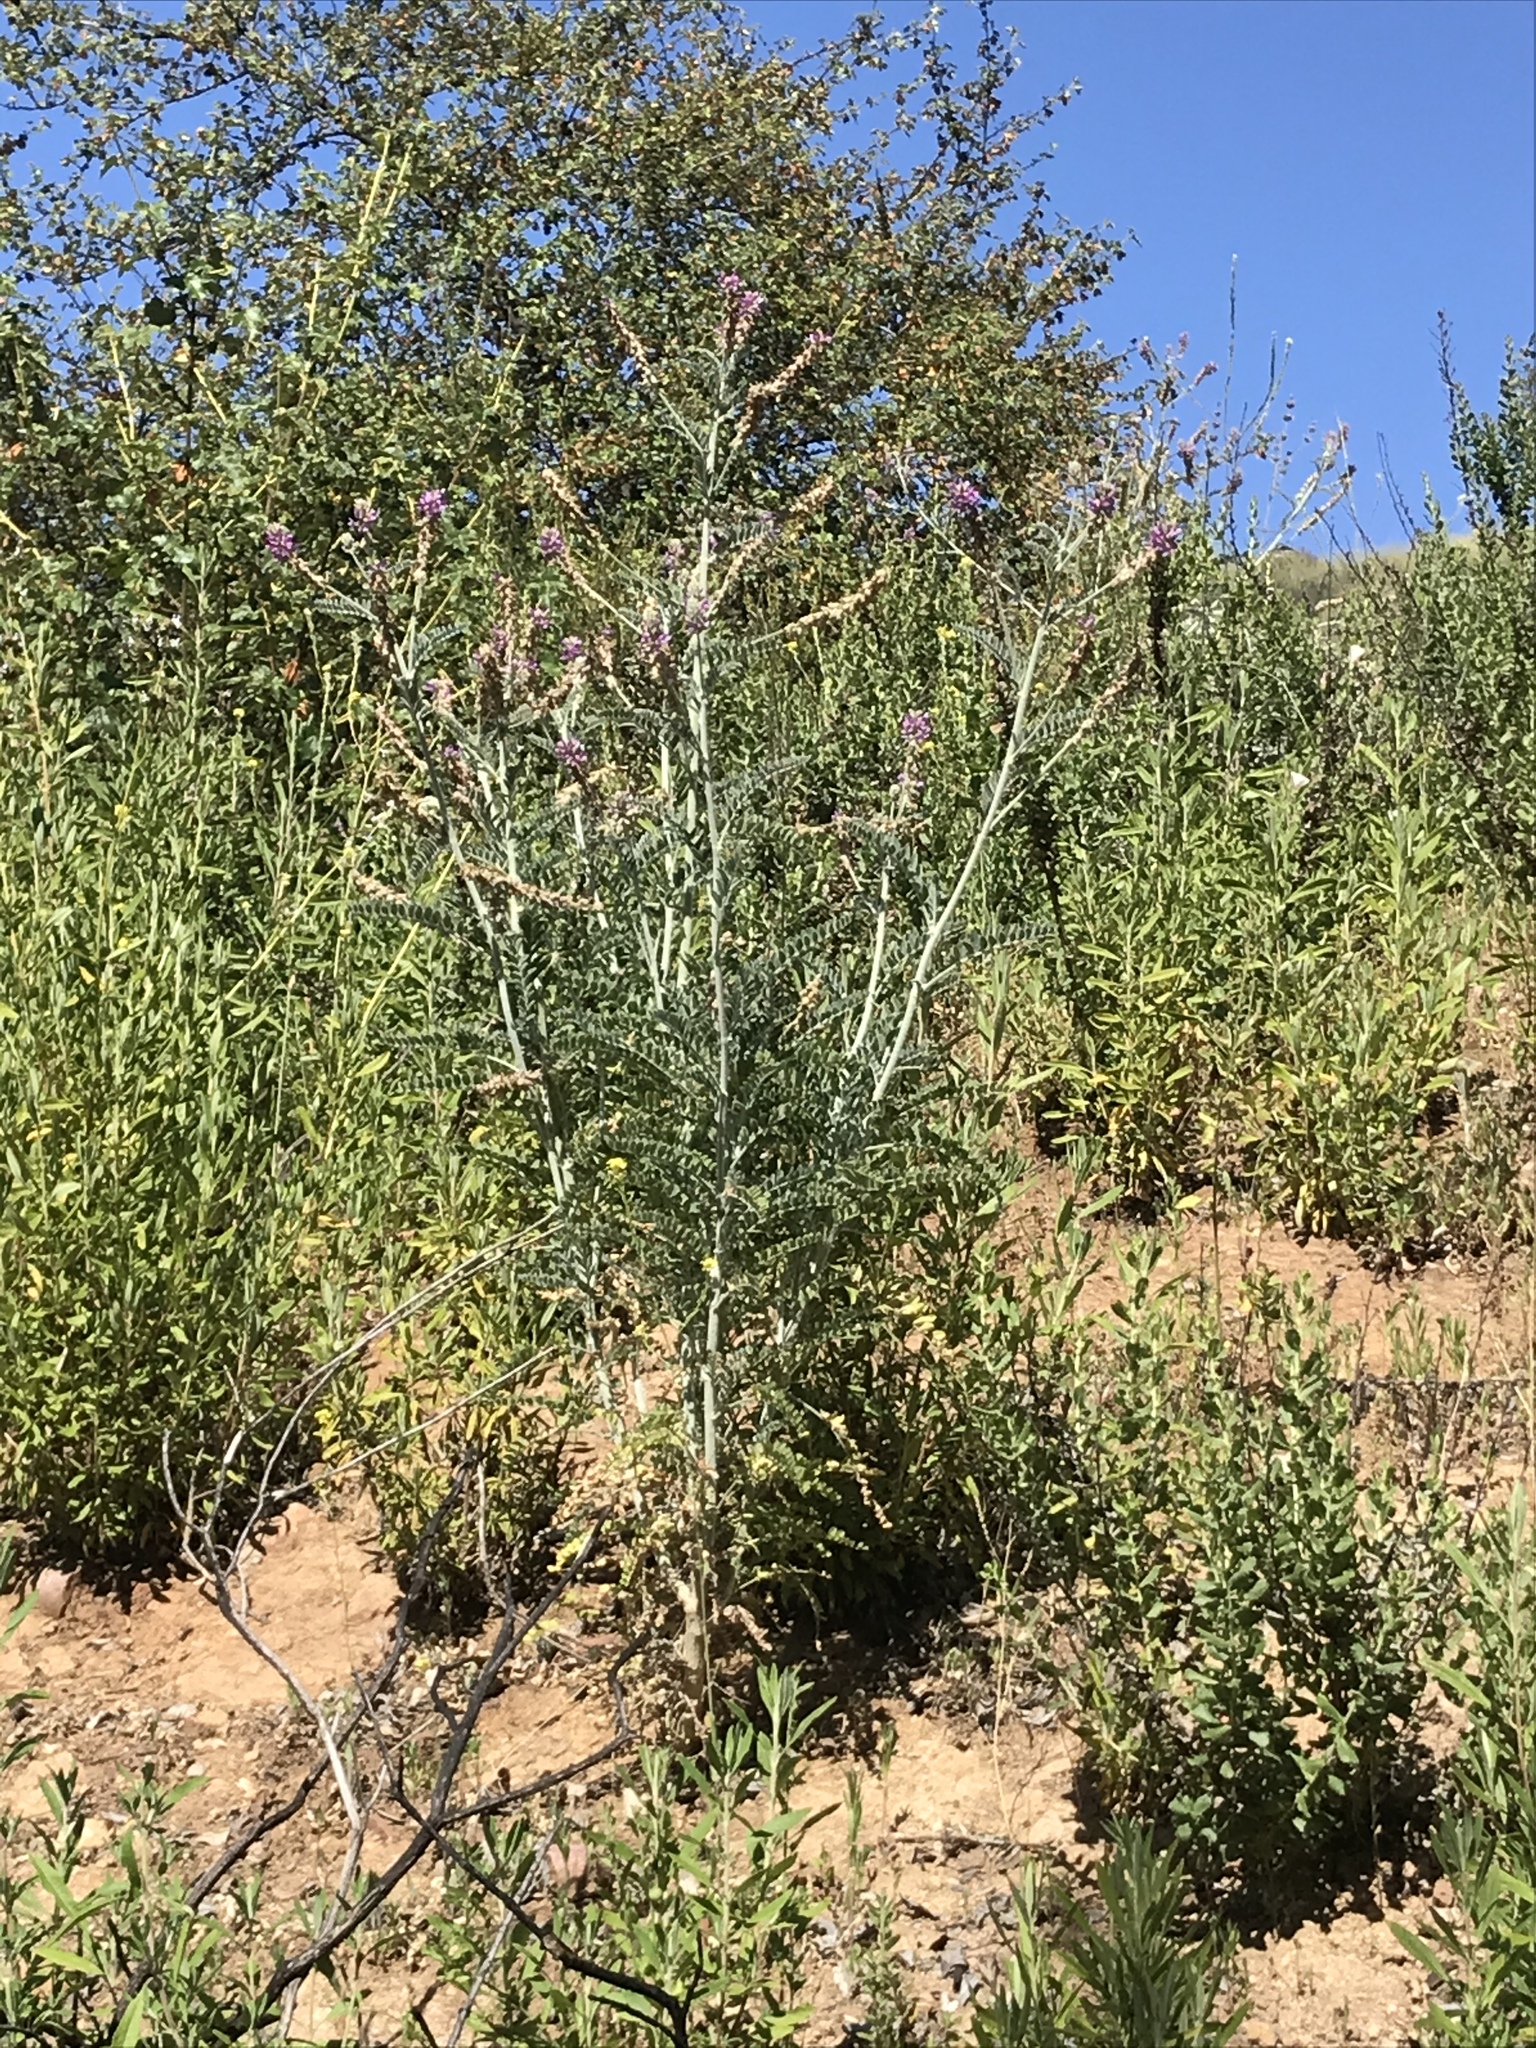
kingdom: Plantae
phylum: Tracheophyta
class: Magnoliopsida
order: Fabales
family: Fabaceae
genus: Astragalus
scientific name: Astragalus brauntonii
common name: Braunton's milk-vetch
